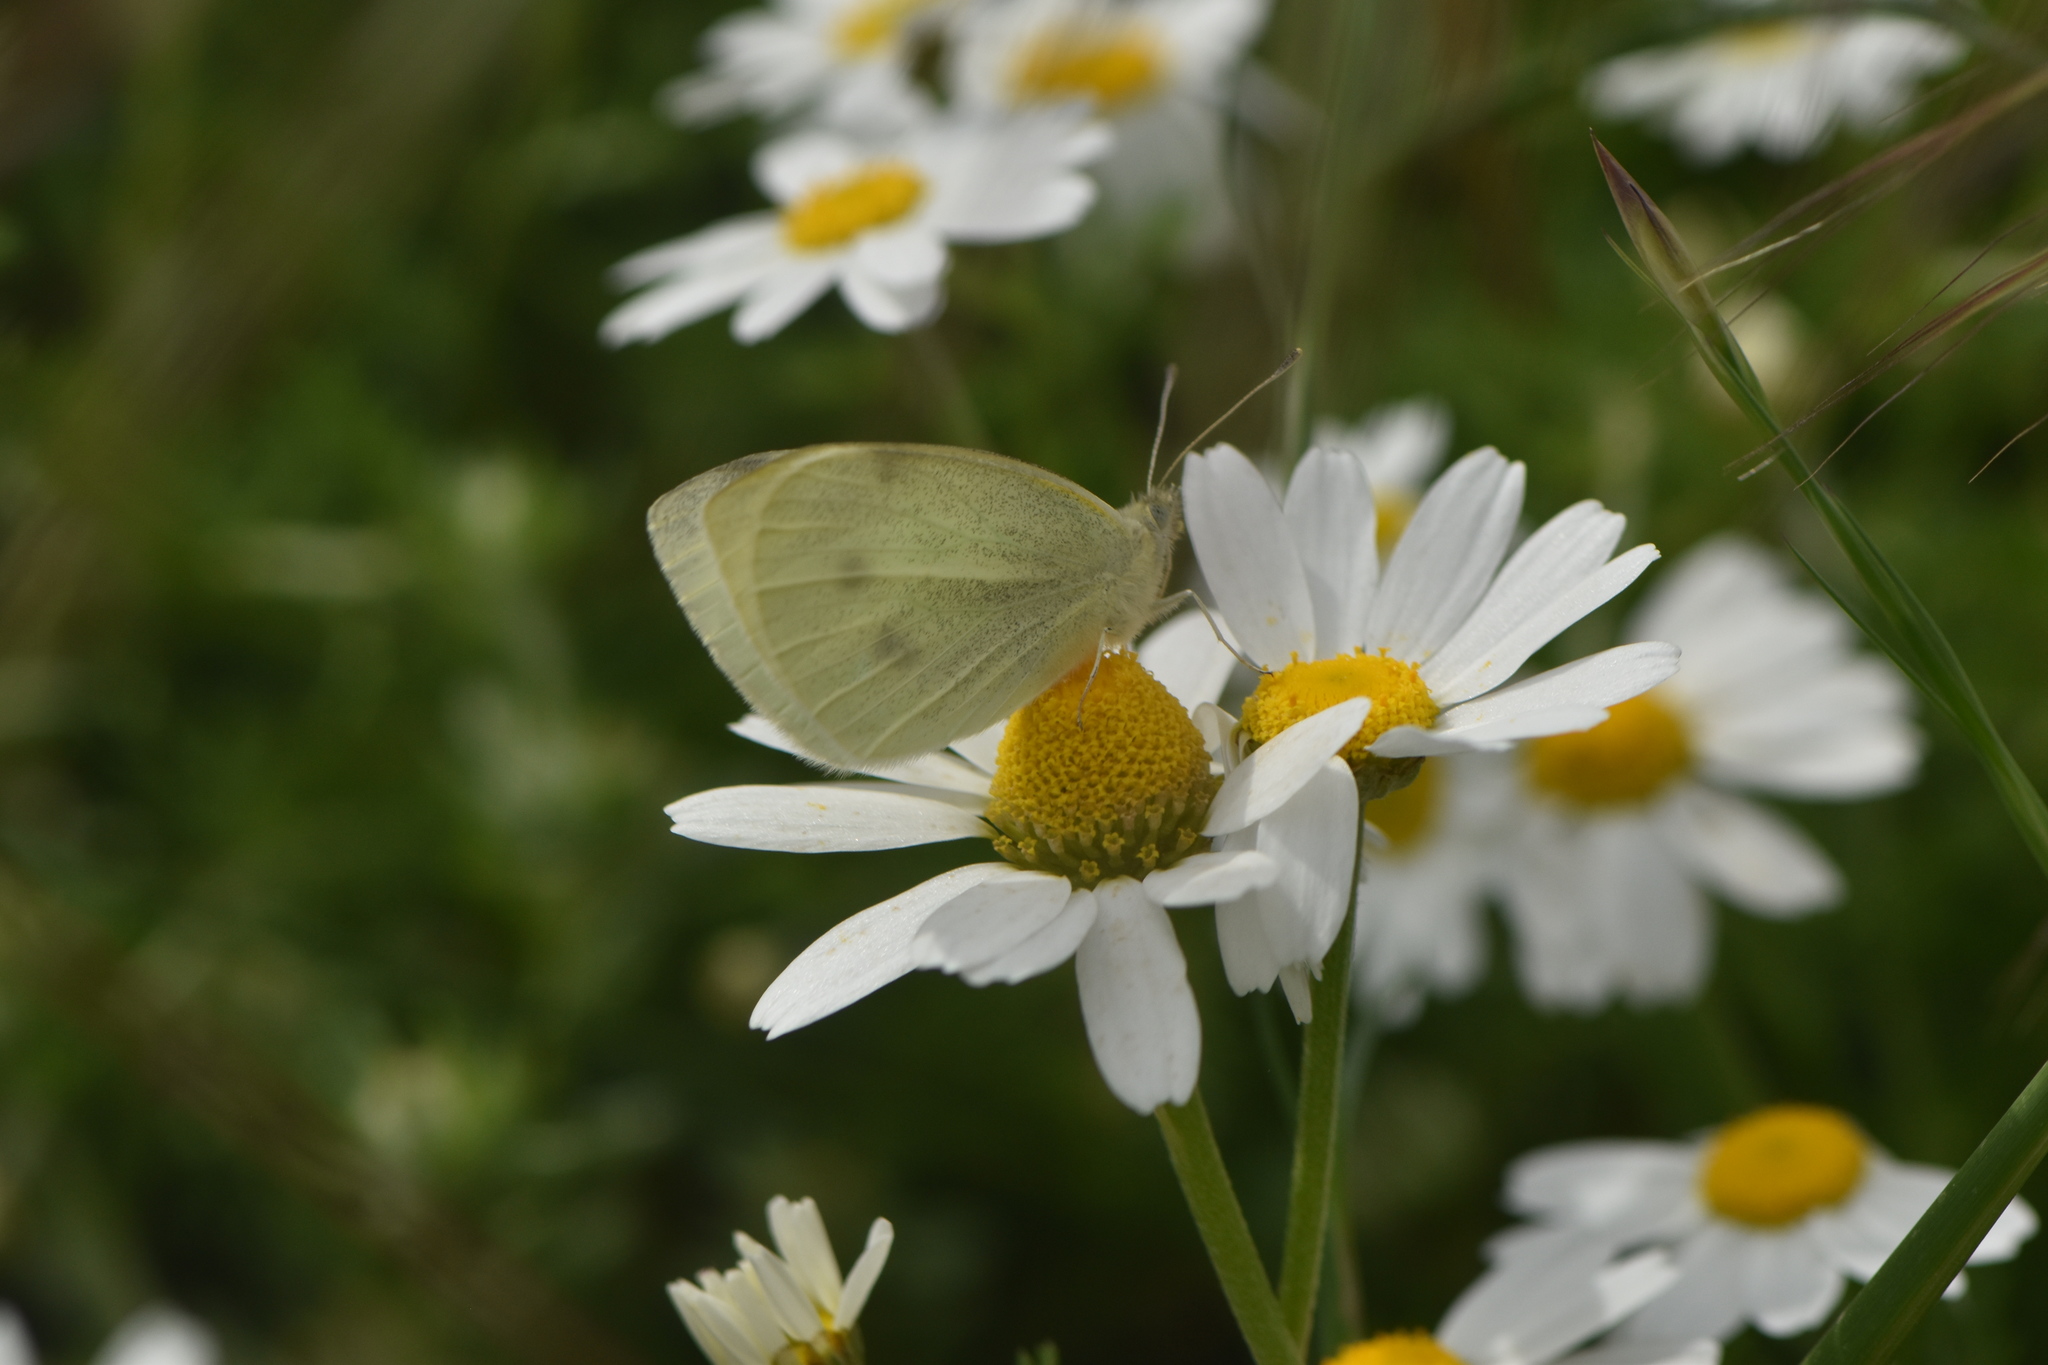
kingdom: Animalia
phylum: Arthropoda
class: Insecta
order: Lepidoptera
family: Pieridae
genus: Pieris
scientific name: Pieris rapae
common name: Small white
